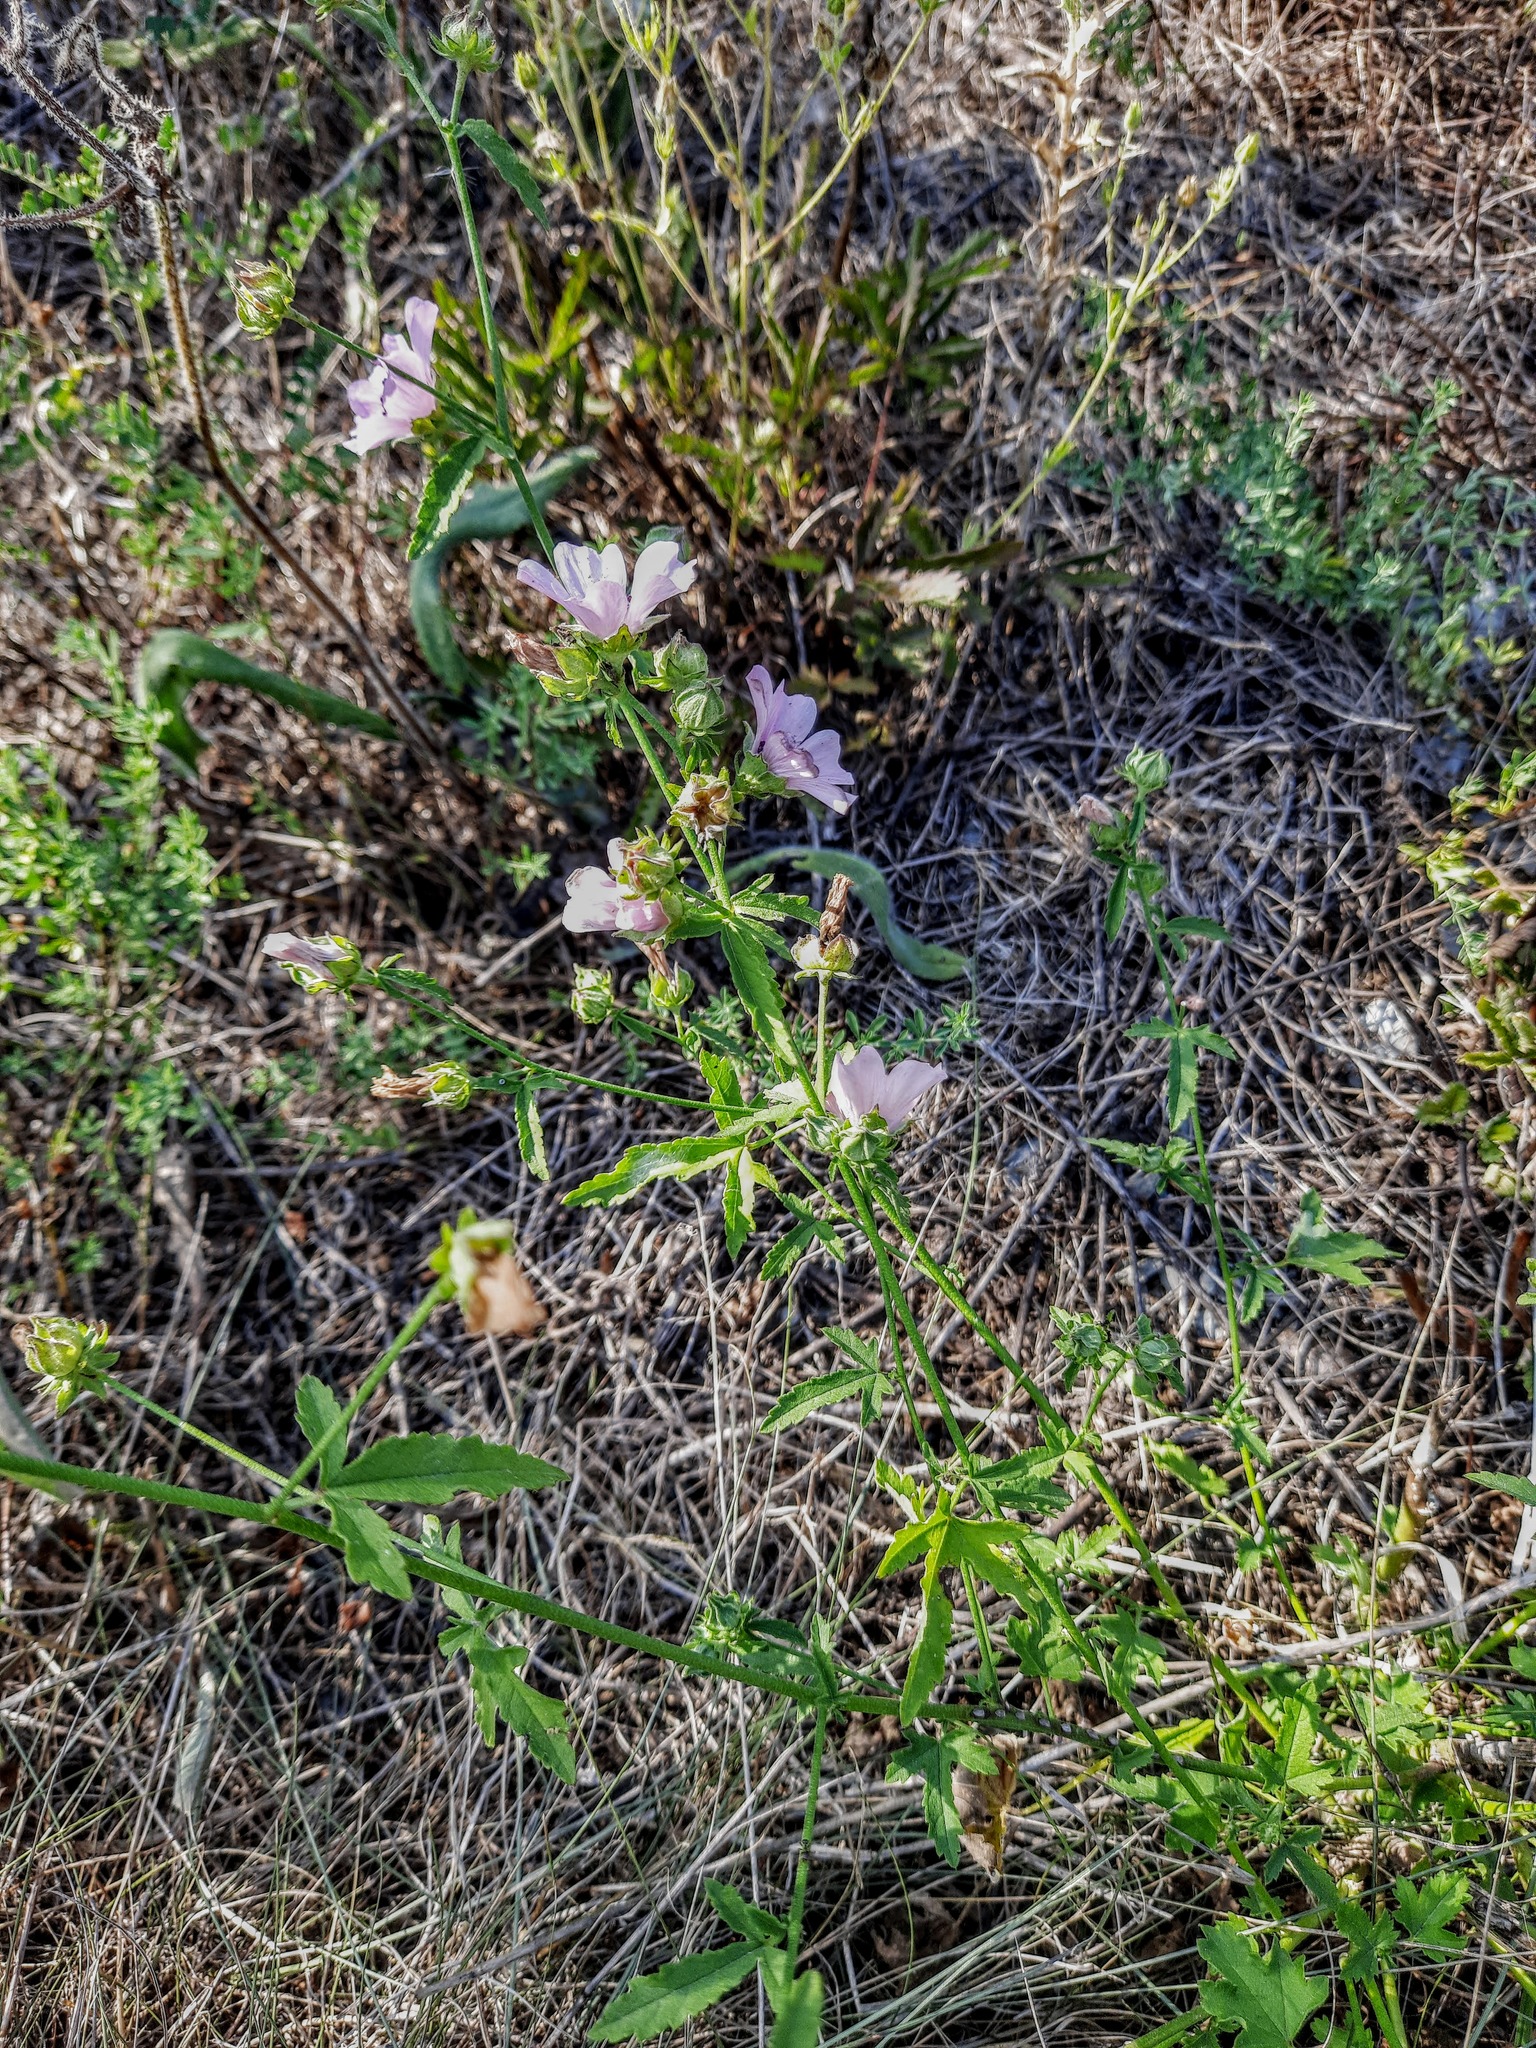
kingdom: Plantae
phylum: Tracheophyta
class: Magnoliopsida
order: Malvales
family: Malvaceae
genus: Althaea
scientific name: Althaea cannabina
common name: Palm-leaf marshmallow
